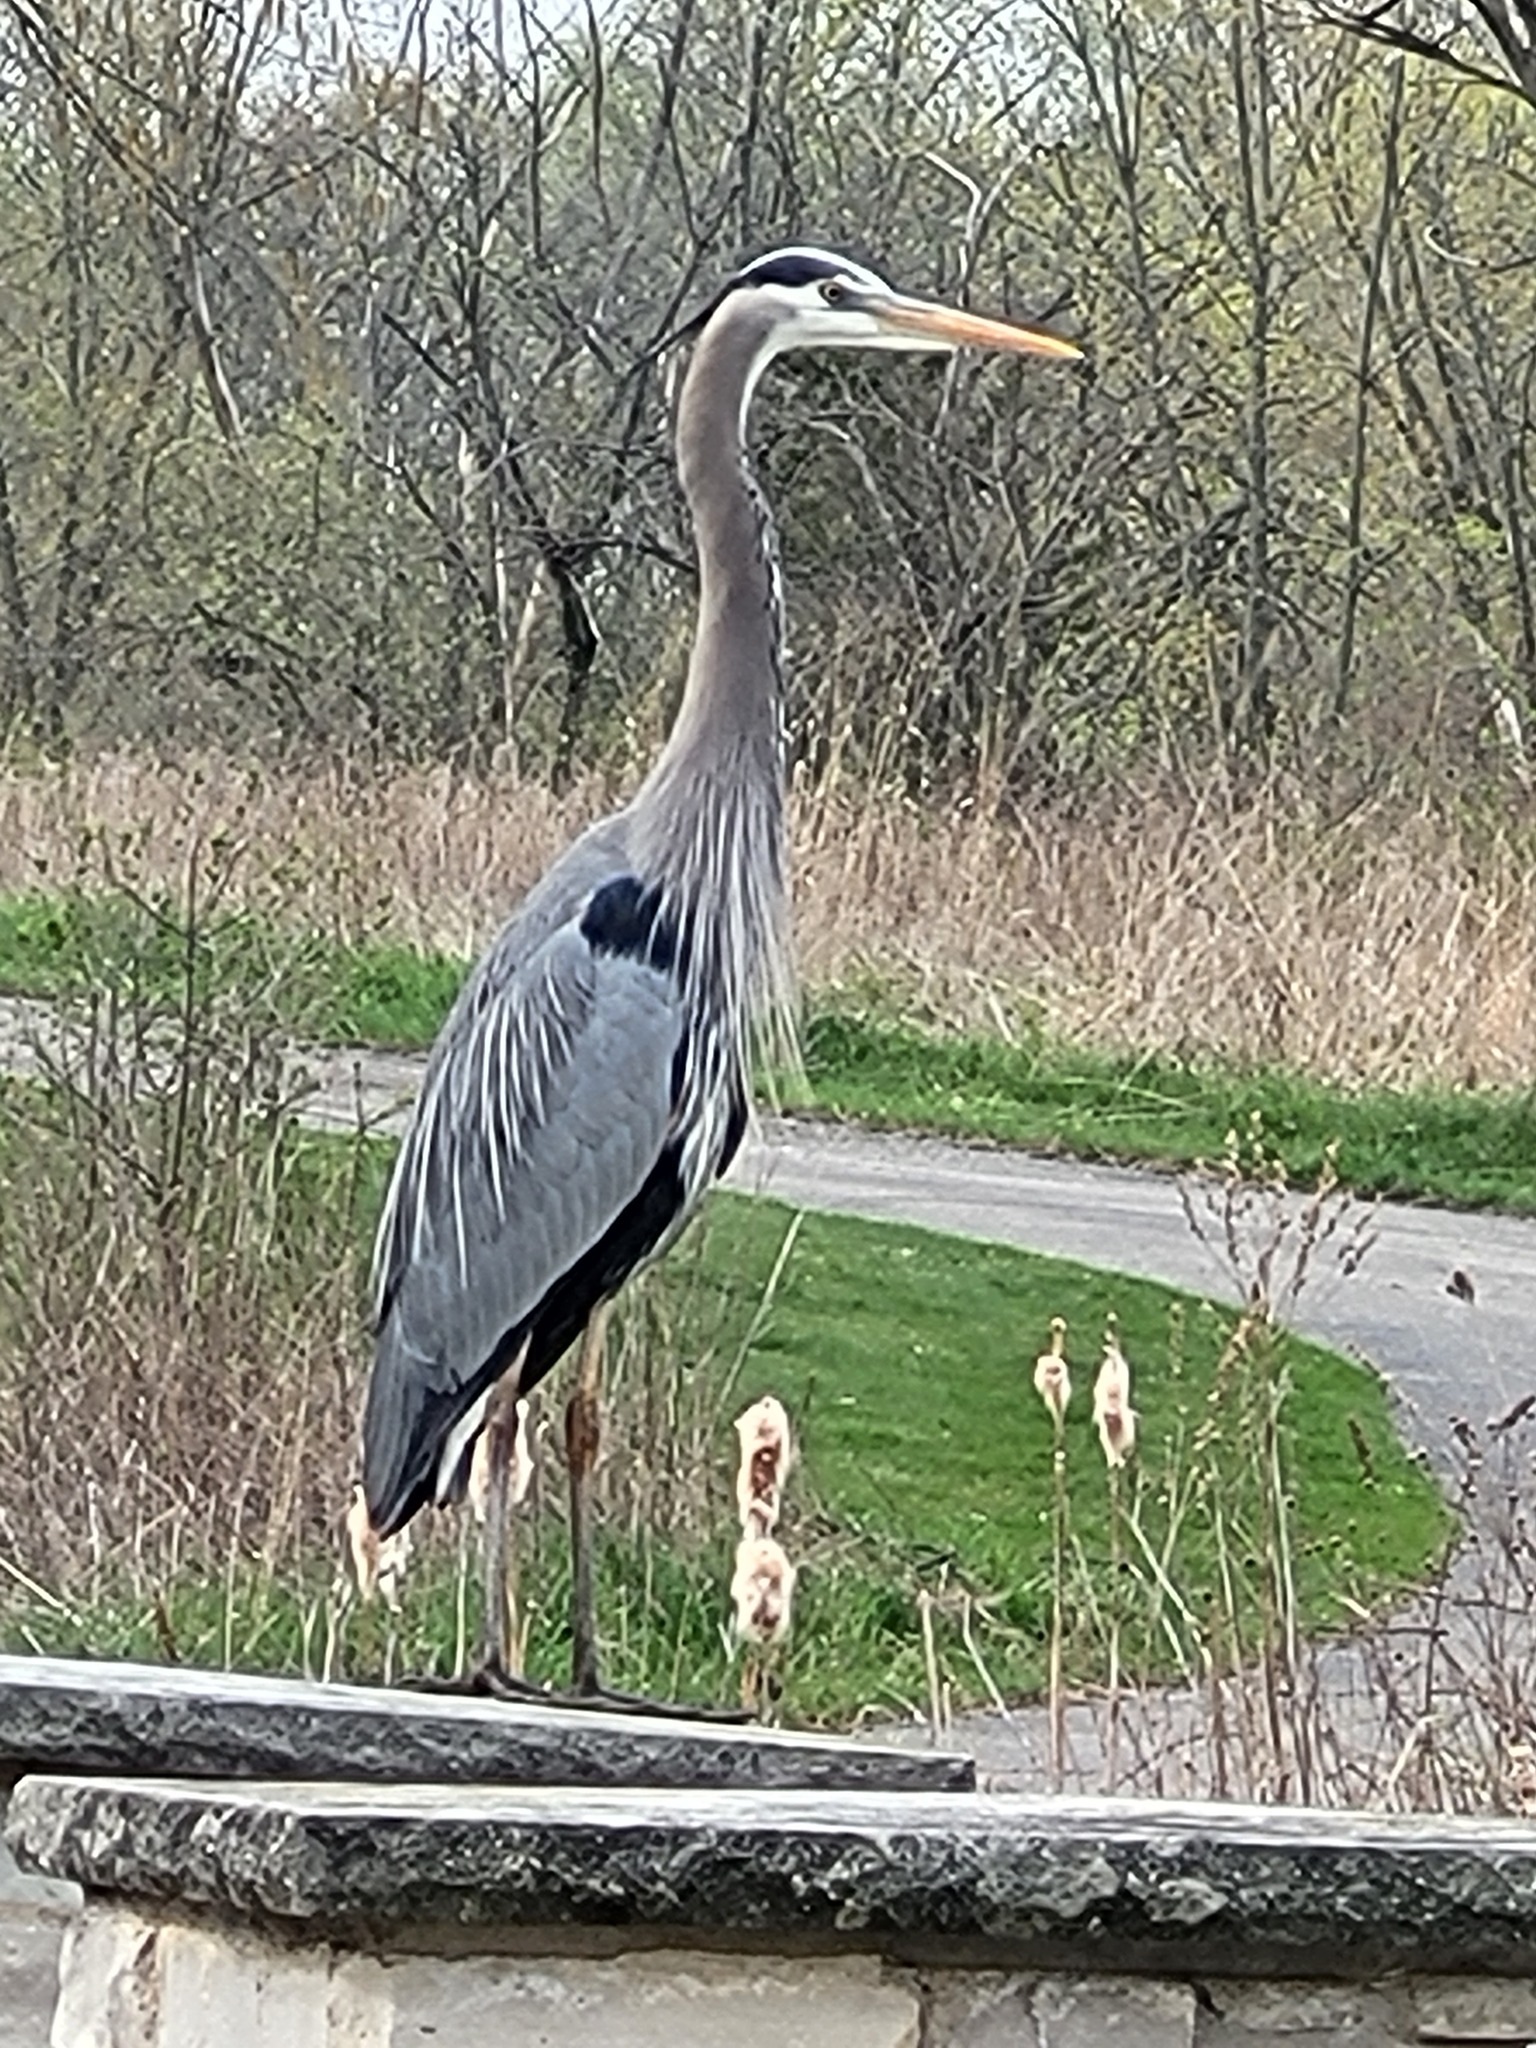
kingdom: Animalia
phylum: Chordata
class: Aves
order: Pelecaniformes
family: Ardeidae
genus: Ardea
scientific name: Ardea herodias
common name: Great blue heron
